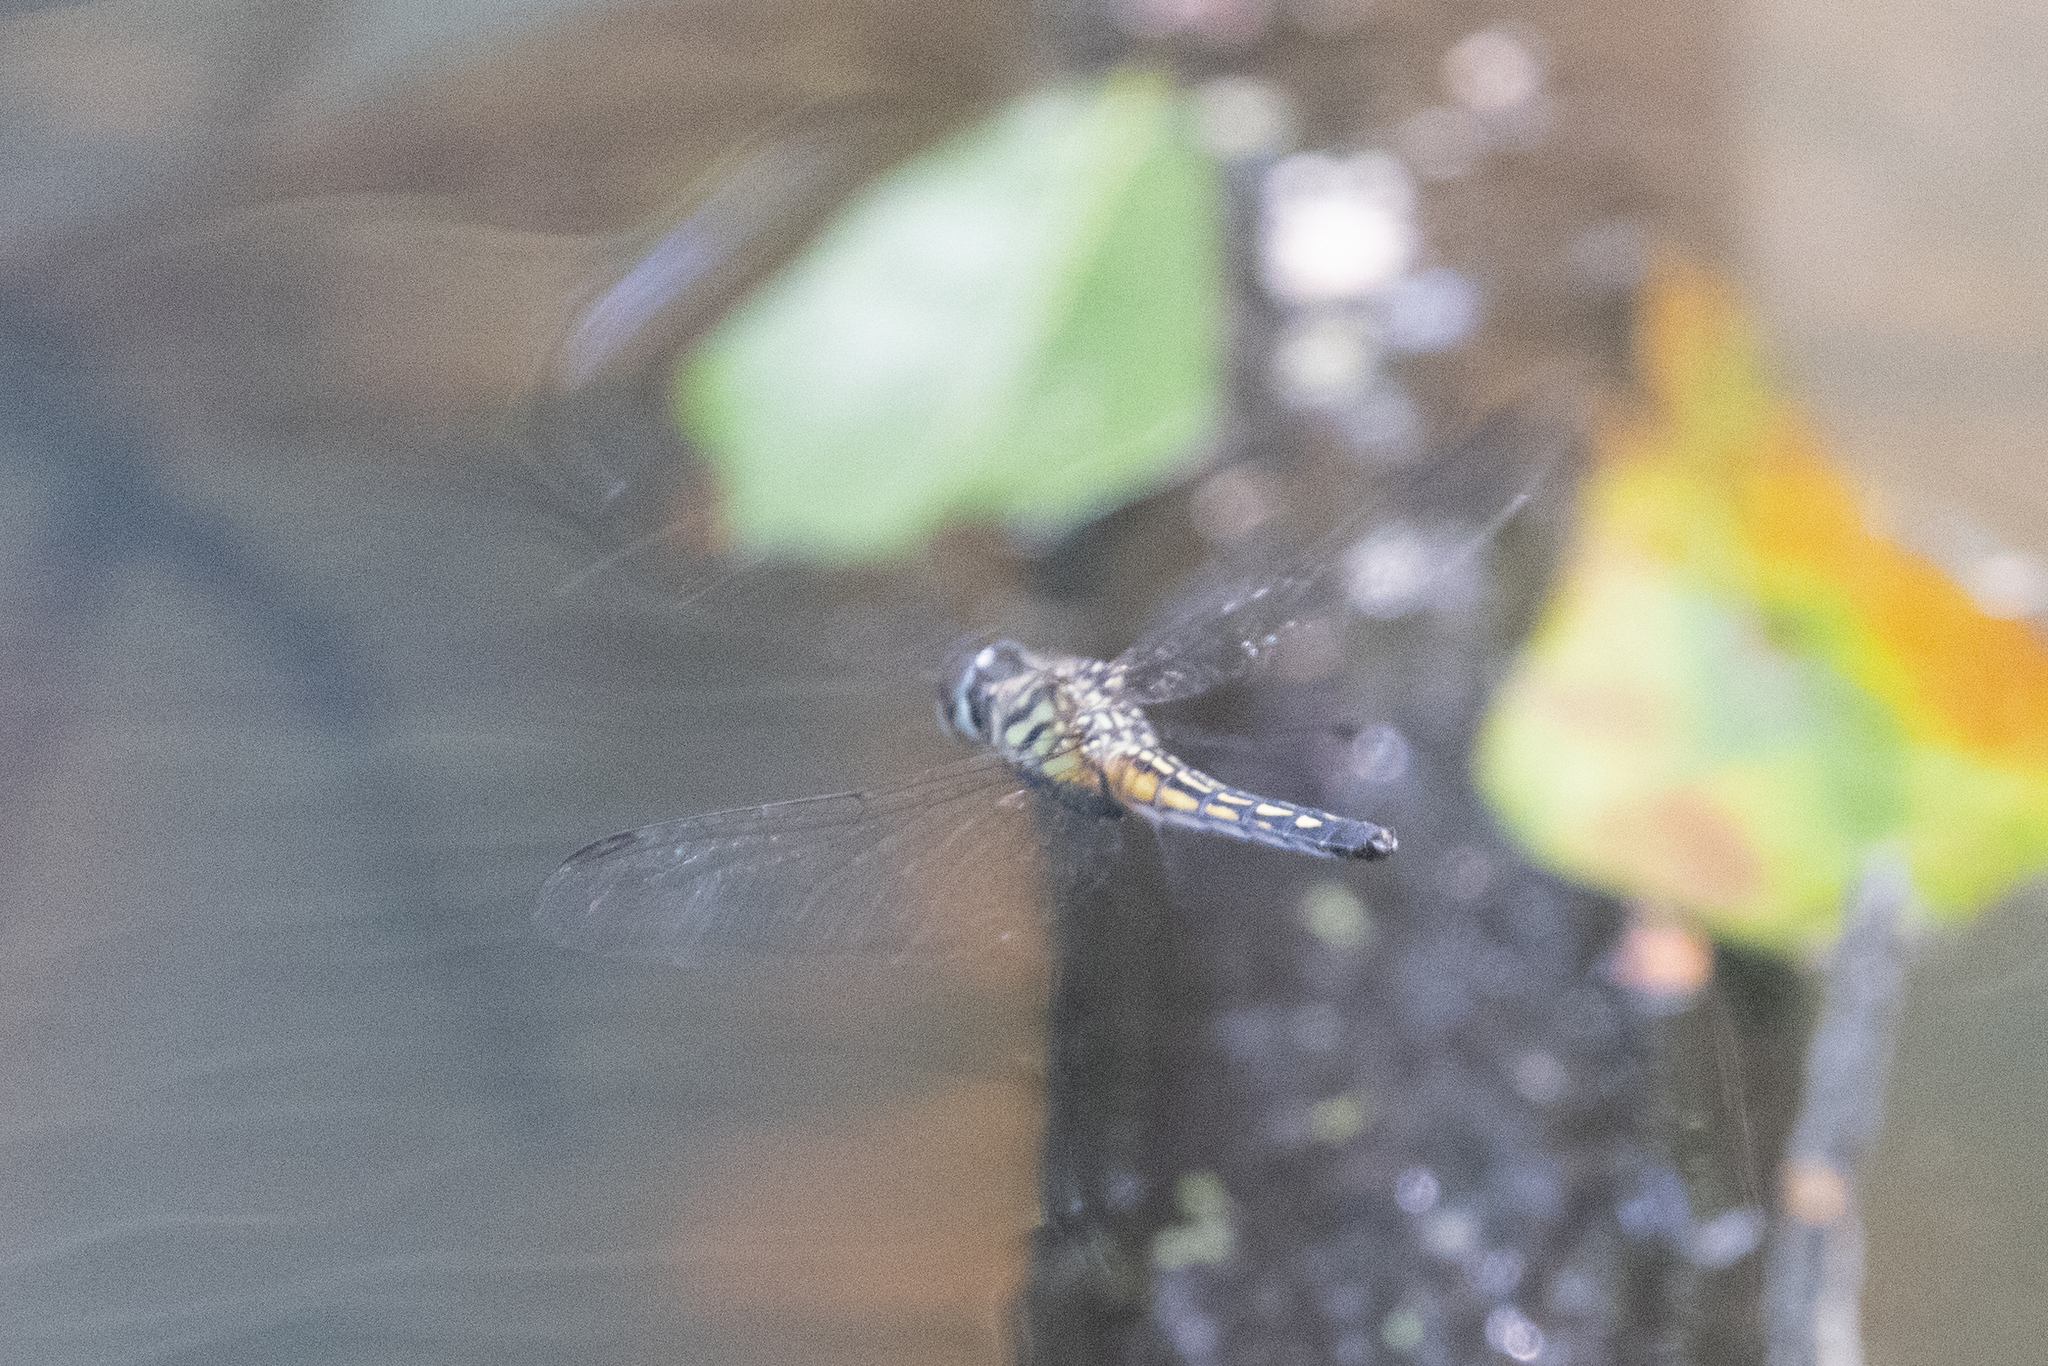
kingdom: Animalia
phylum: Arthropoda
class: Insecta
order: Odonata
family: Libellulidae
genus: Pachydiplax
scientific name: Pachydiplax longipennis
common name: Blue dasher
